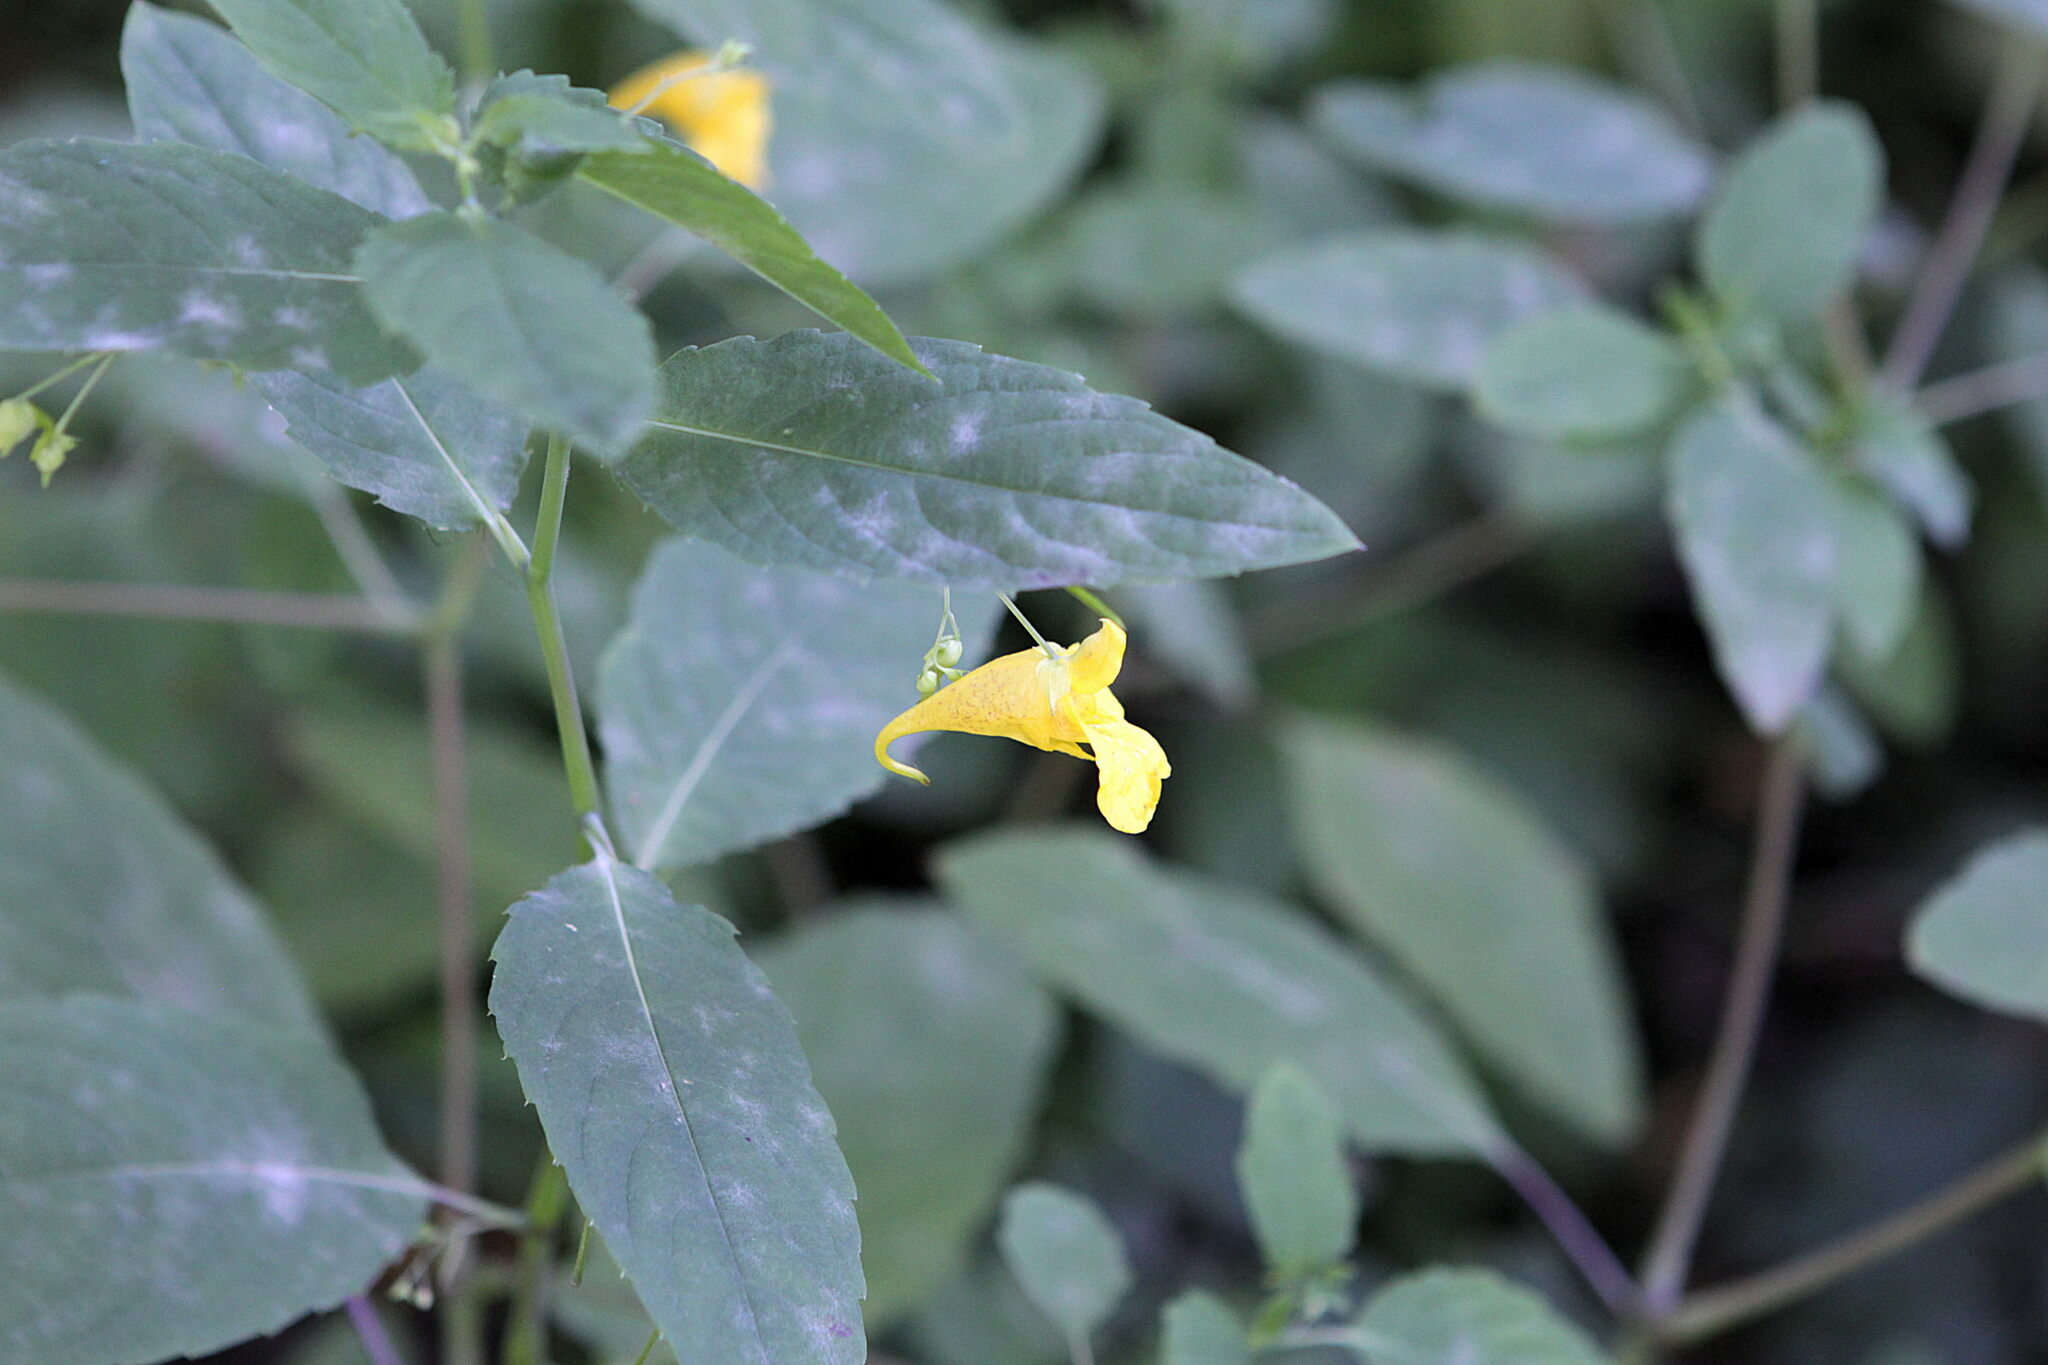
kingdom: Plantae
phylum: Tracheophyta
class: Magnoliopsida
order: Ericales
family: Balsaminaceae
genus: Impatiens
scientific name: Impatiens noli-tangere
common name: Touch-me-not balsam
